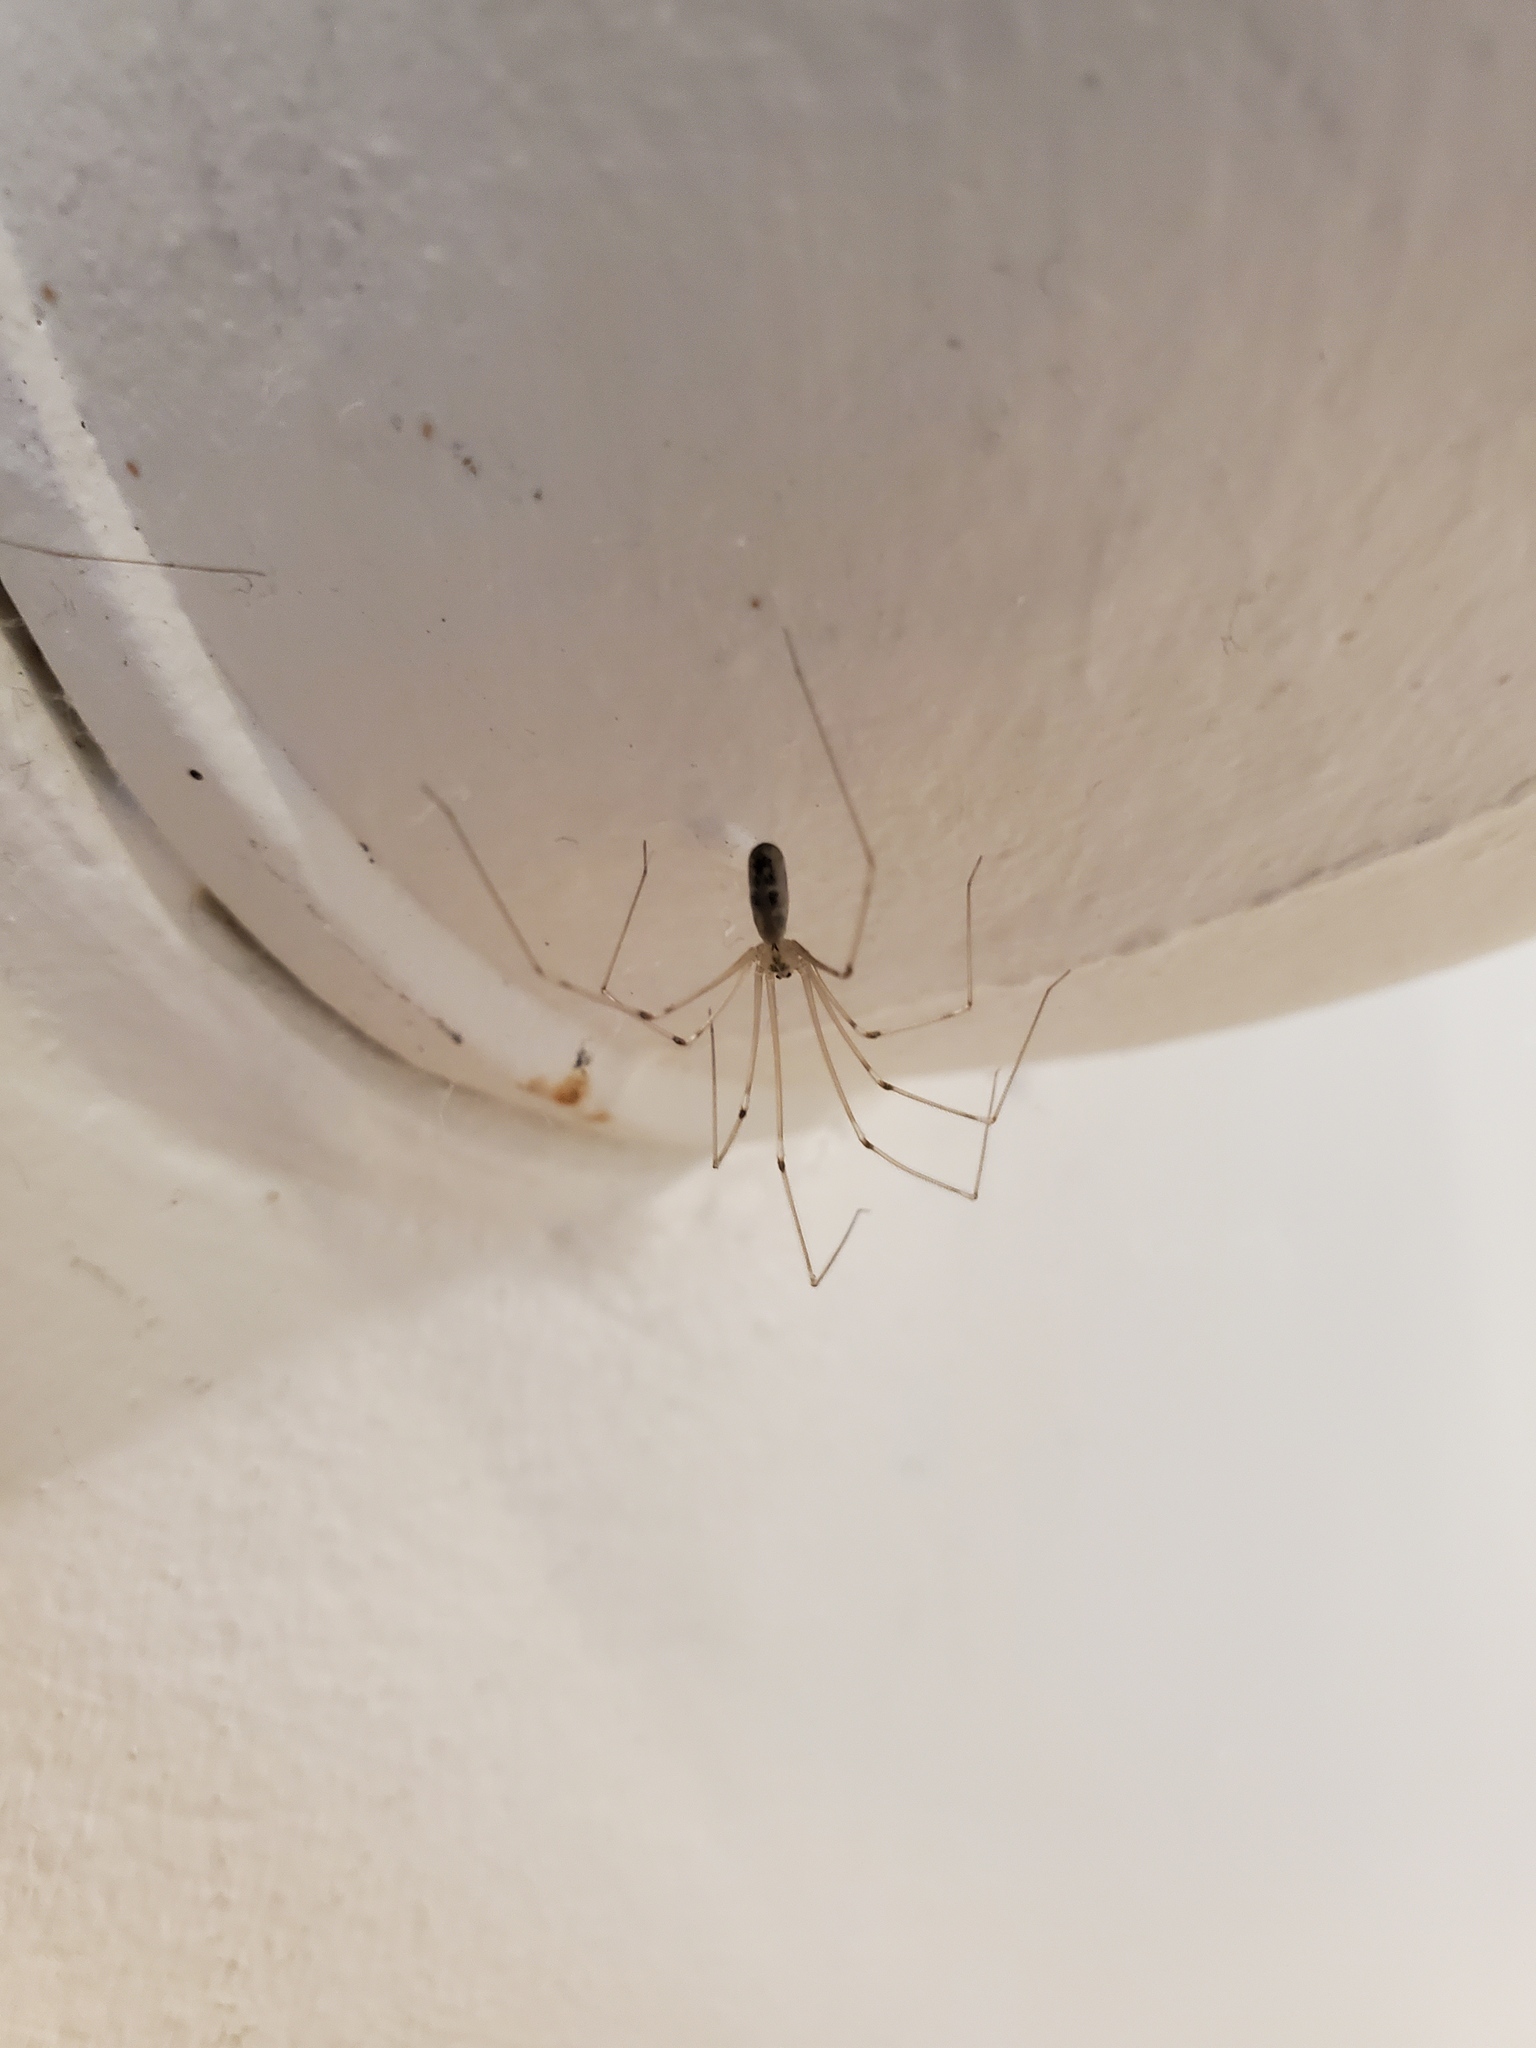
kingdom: Animalia
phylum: Arthropoda
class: Arachnida
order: Araneae
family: Pholcidae
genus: Pholcus
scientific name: Pholcus phalangioides
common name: Longbodied cellar spider
